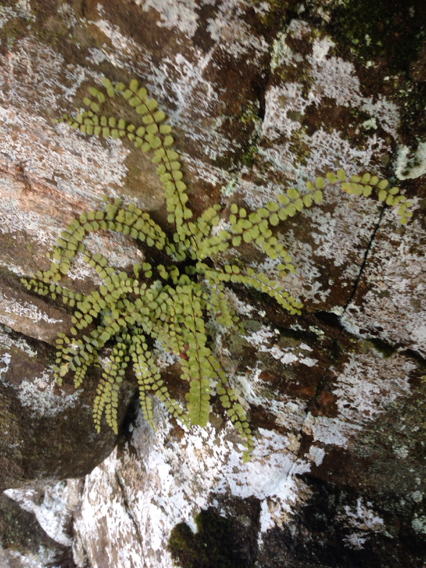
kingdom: Plantae
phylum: Tracheophyta
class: Polypodiopsida
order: Polypodiales
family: Aspleniaceae
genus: Asplenium
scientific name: Asplenium trichomanes
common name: Maidenhair spleenwort
